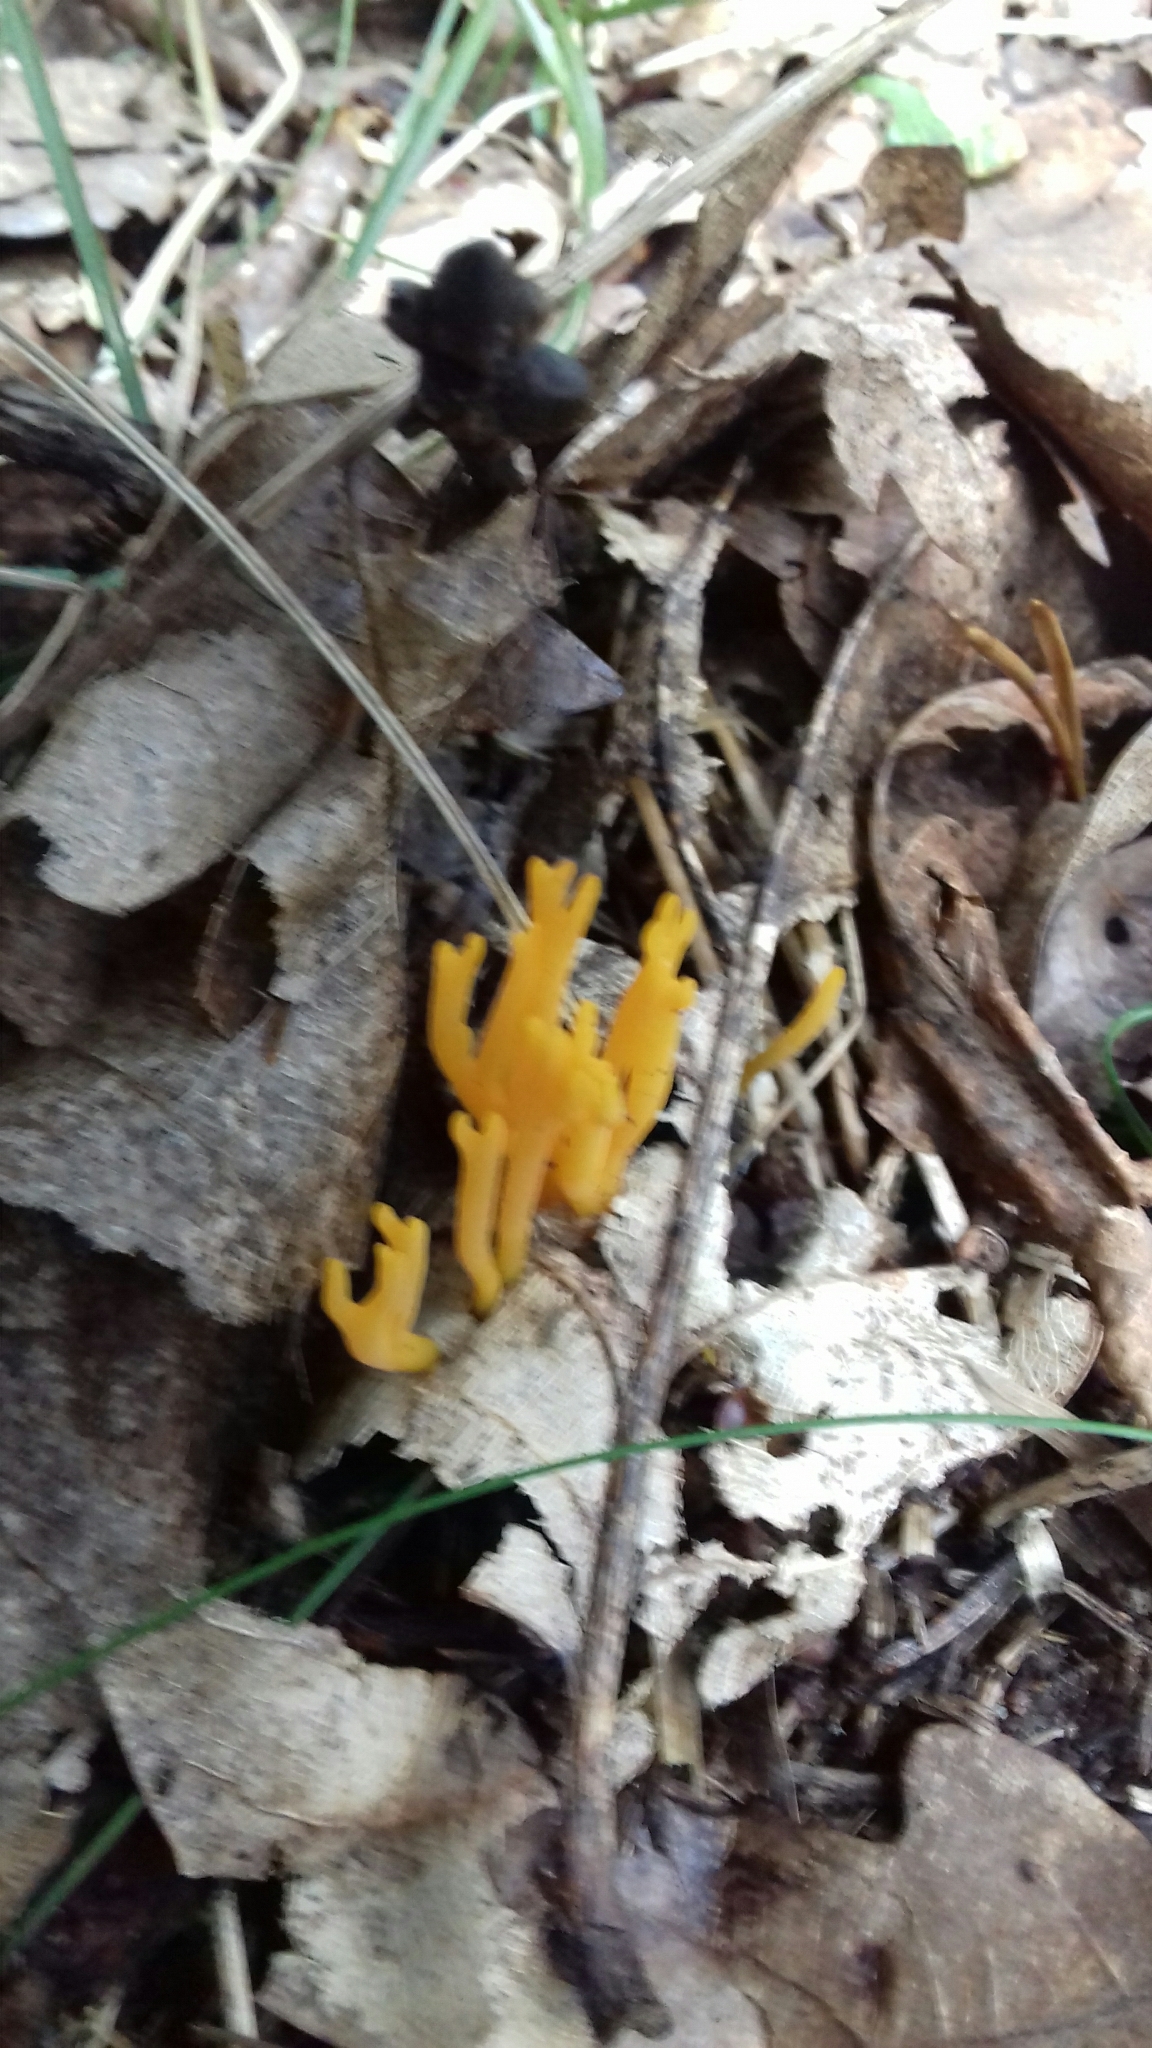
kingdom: Fungi
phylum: Basidiomycota
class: Dacrymycetes
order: Dacrymycetales
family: Dacrymycetaceae
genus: Calocera
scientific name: Calocera viscosa
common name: Yellow stagshorn
